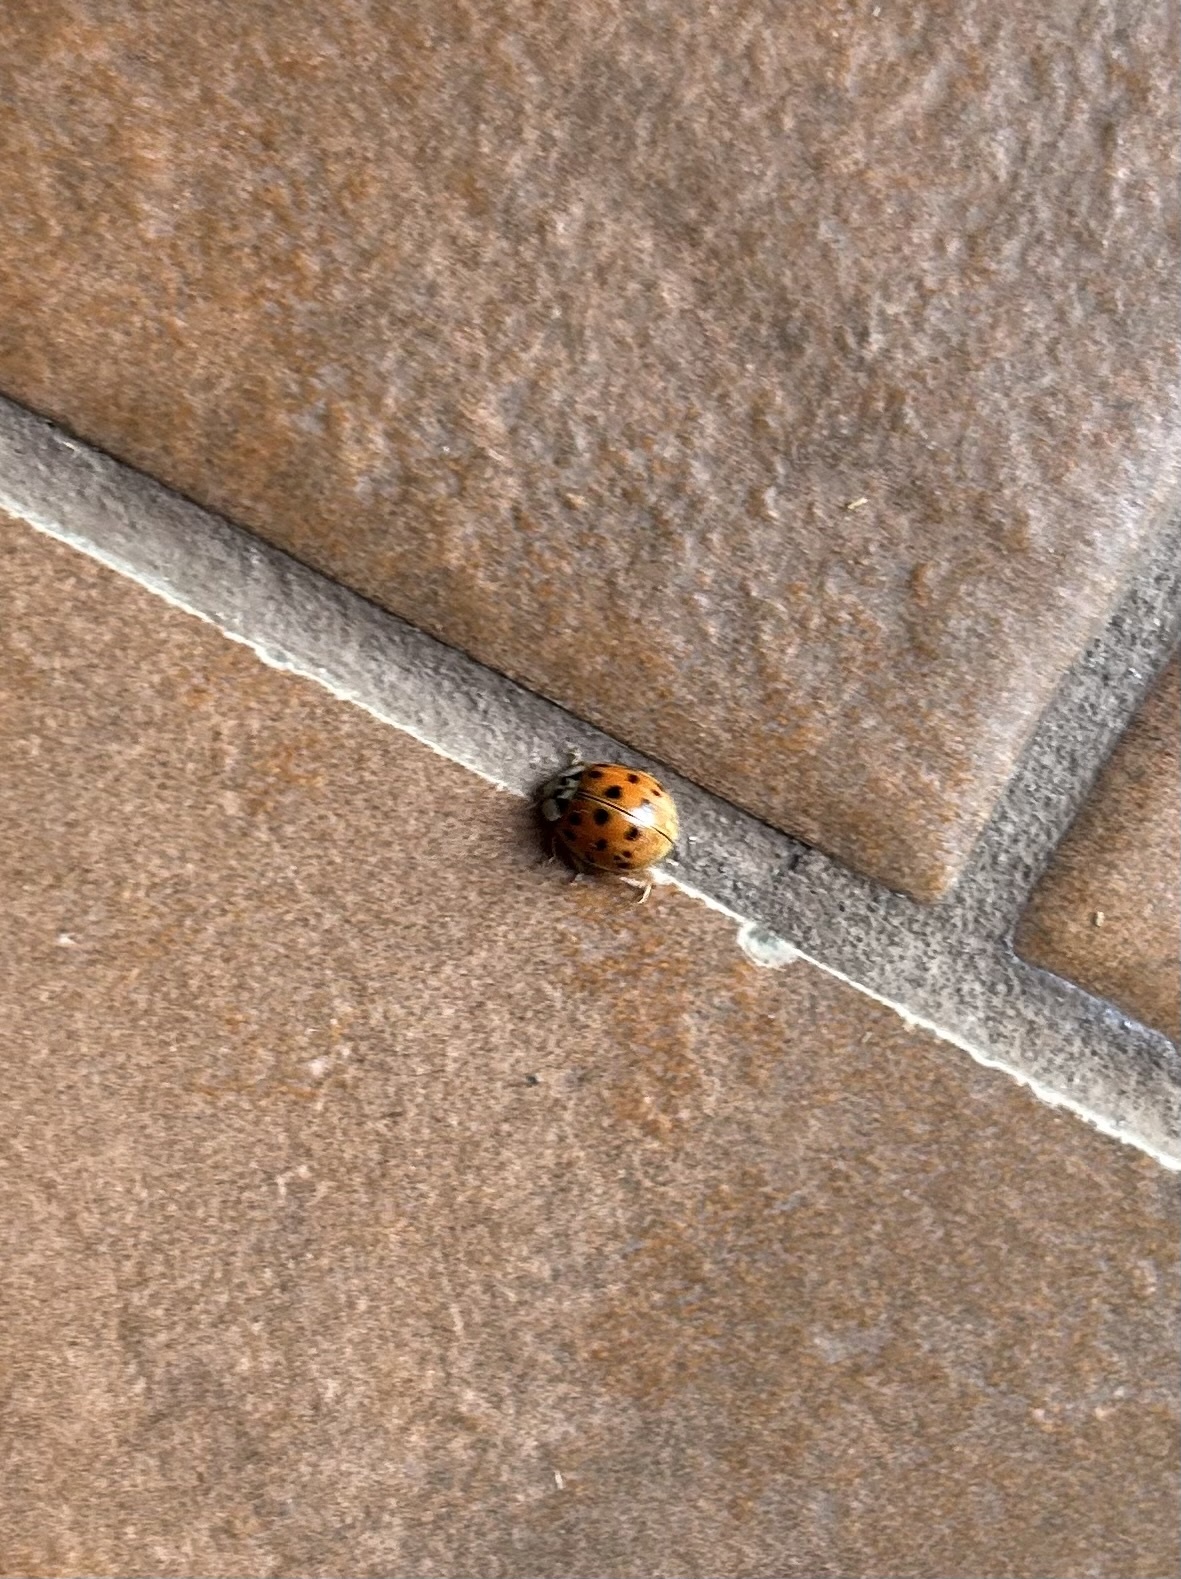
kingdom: Animalia
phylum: Arthropoda
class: Insecta
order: Coleoptera
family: Coccinellidae
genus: Harmonia
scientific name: Harmonia axyridis
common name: Harlequin ladybird
